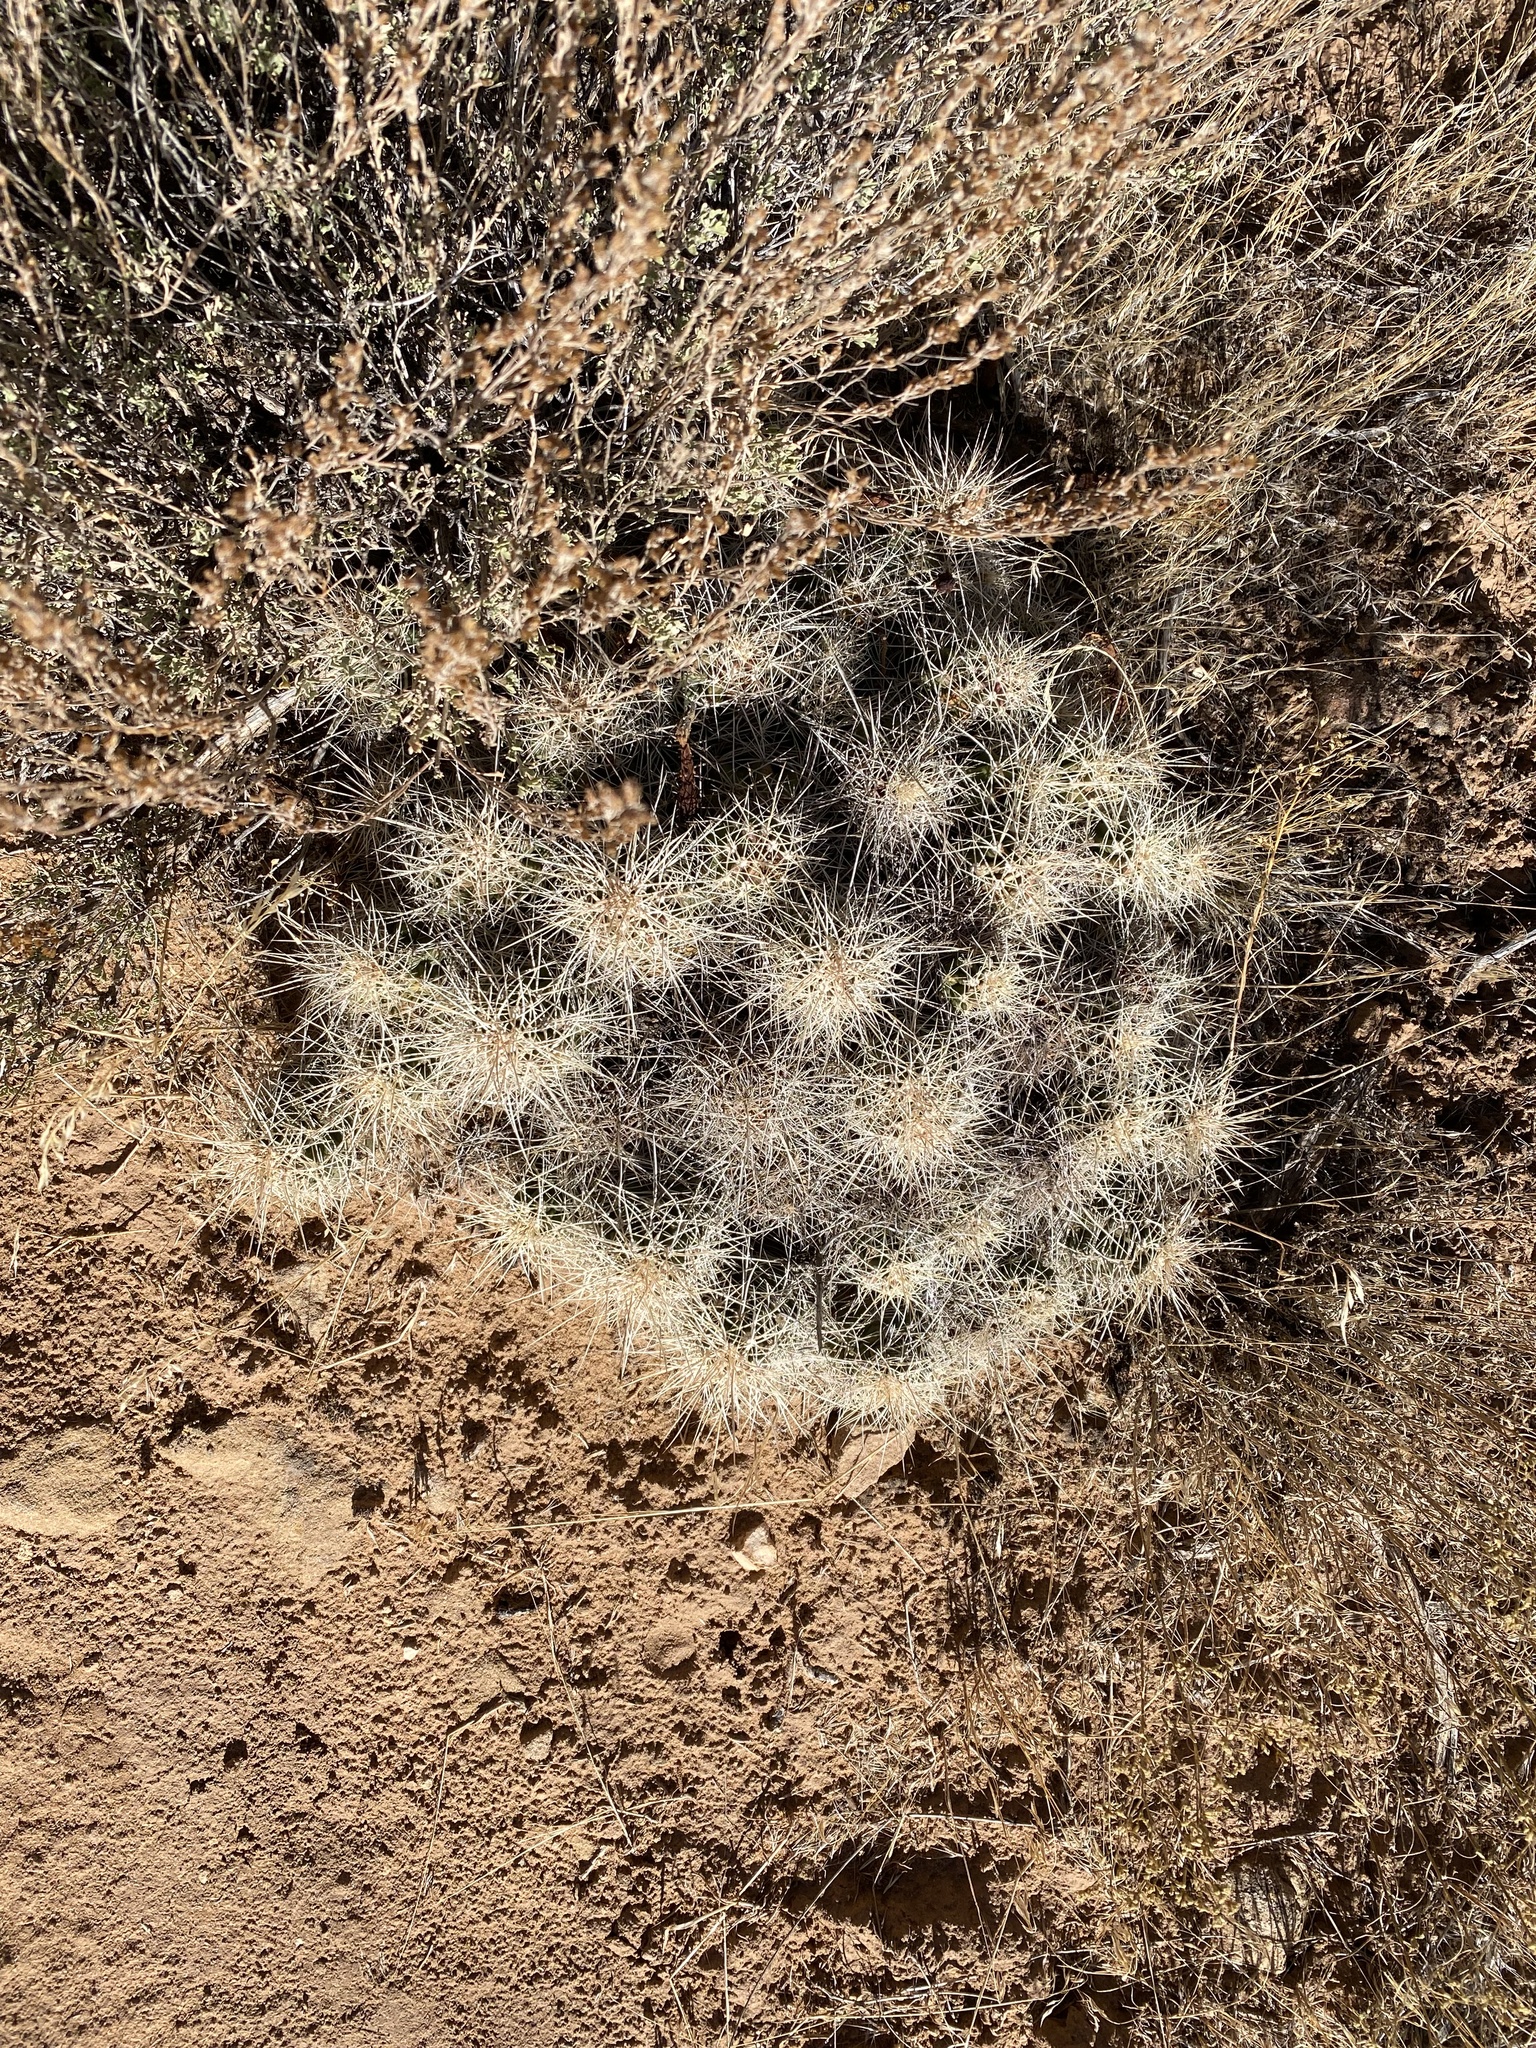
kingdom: Plantae
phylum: Tracheophyta
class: Magnoliopsida
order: Caryophyllales
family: Cactaceae
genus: Echinocereus
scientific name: Echinocereus triglochidiatus
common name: Claretcup hedgehog
